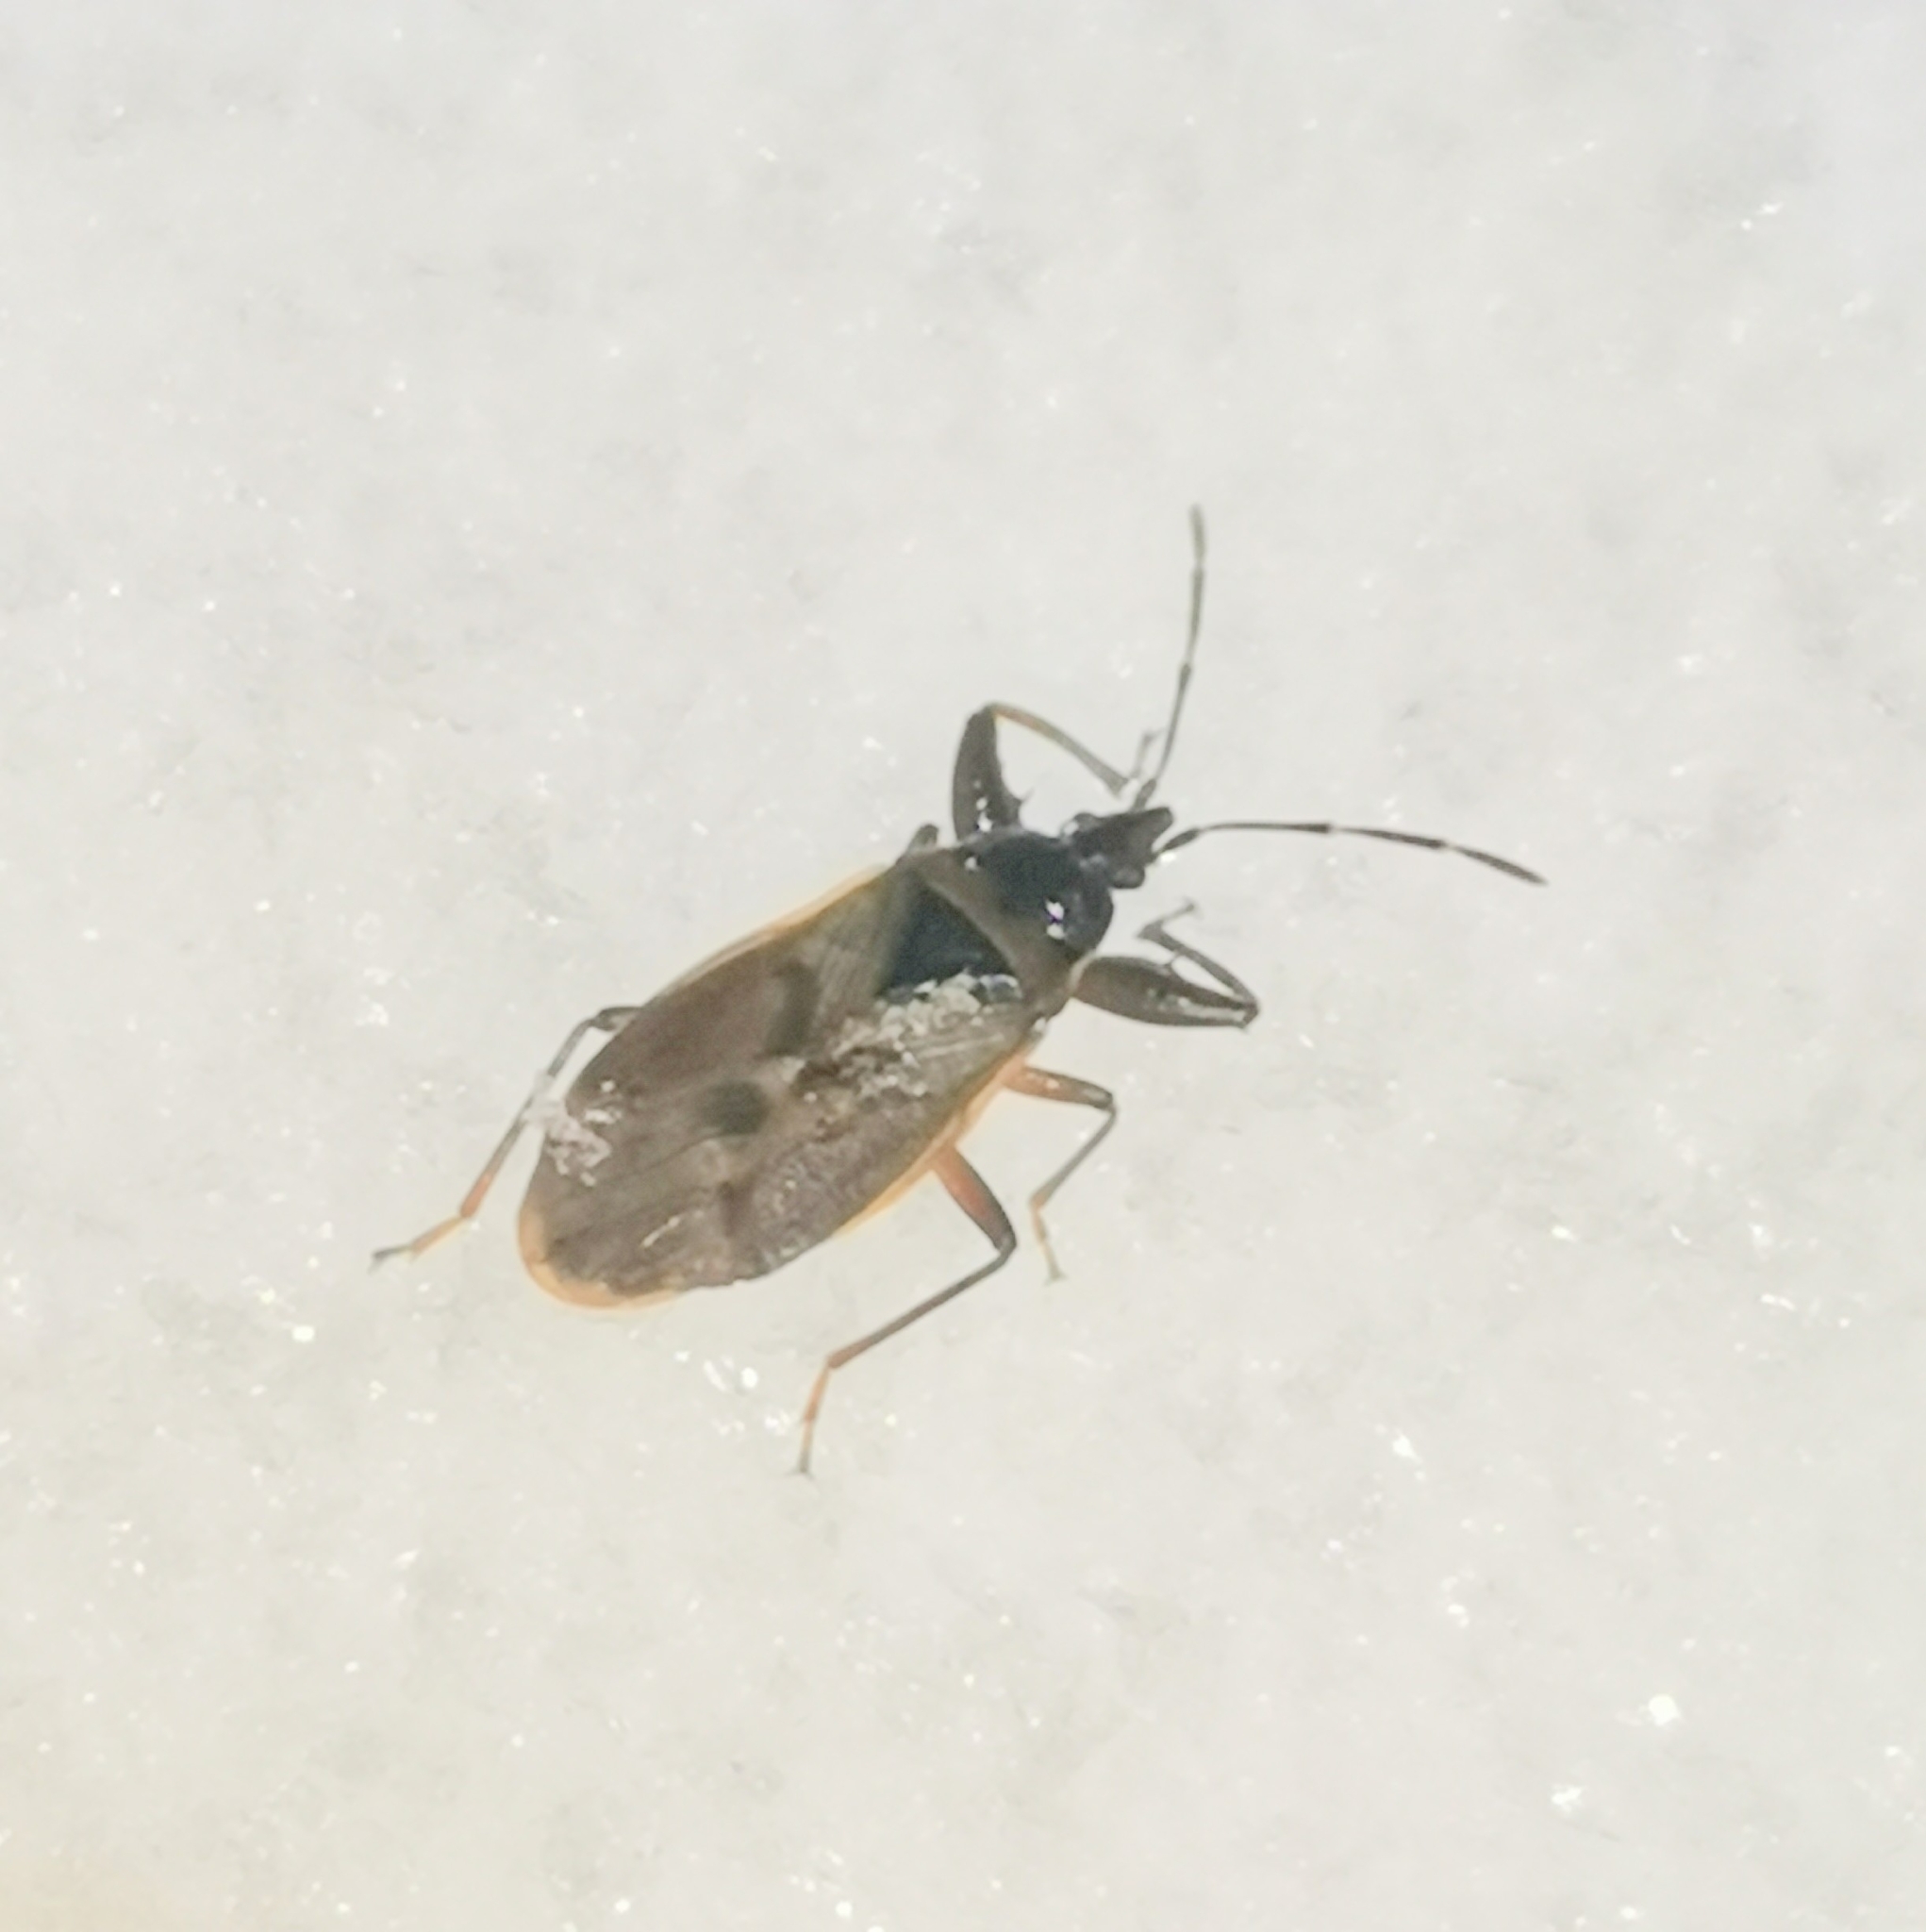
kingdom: Animalia
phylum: Arthropoda
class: Insecta
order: Hemiptera
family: Rhyparochromidae
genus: Gastrodes
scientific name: Gastrodes abietum
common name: Spruce cone bug
